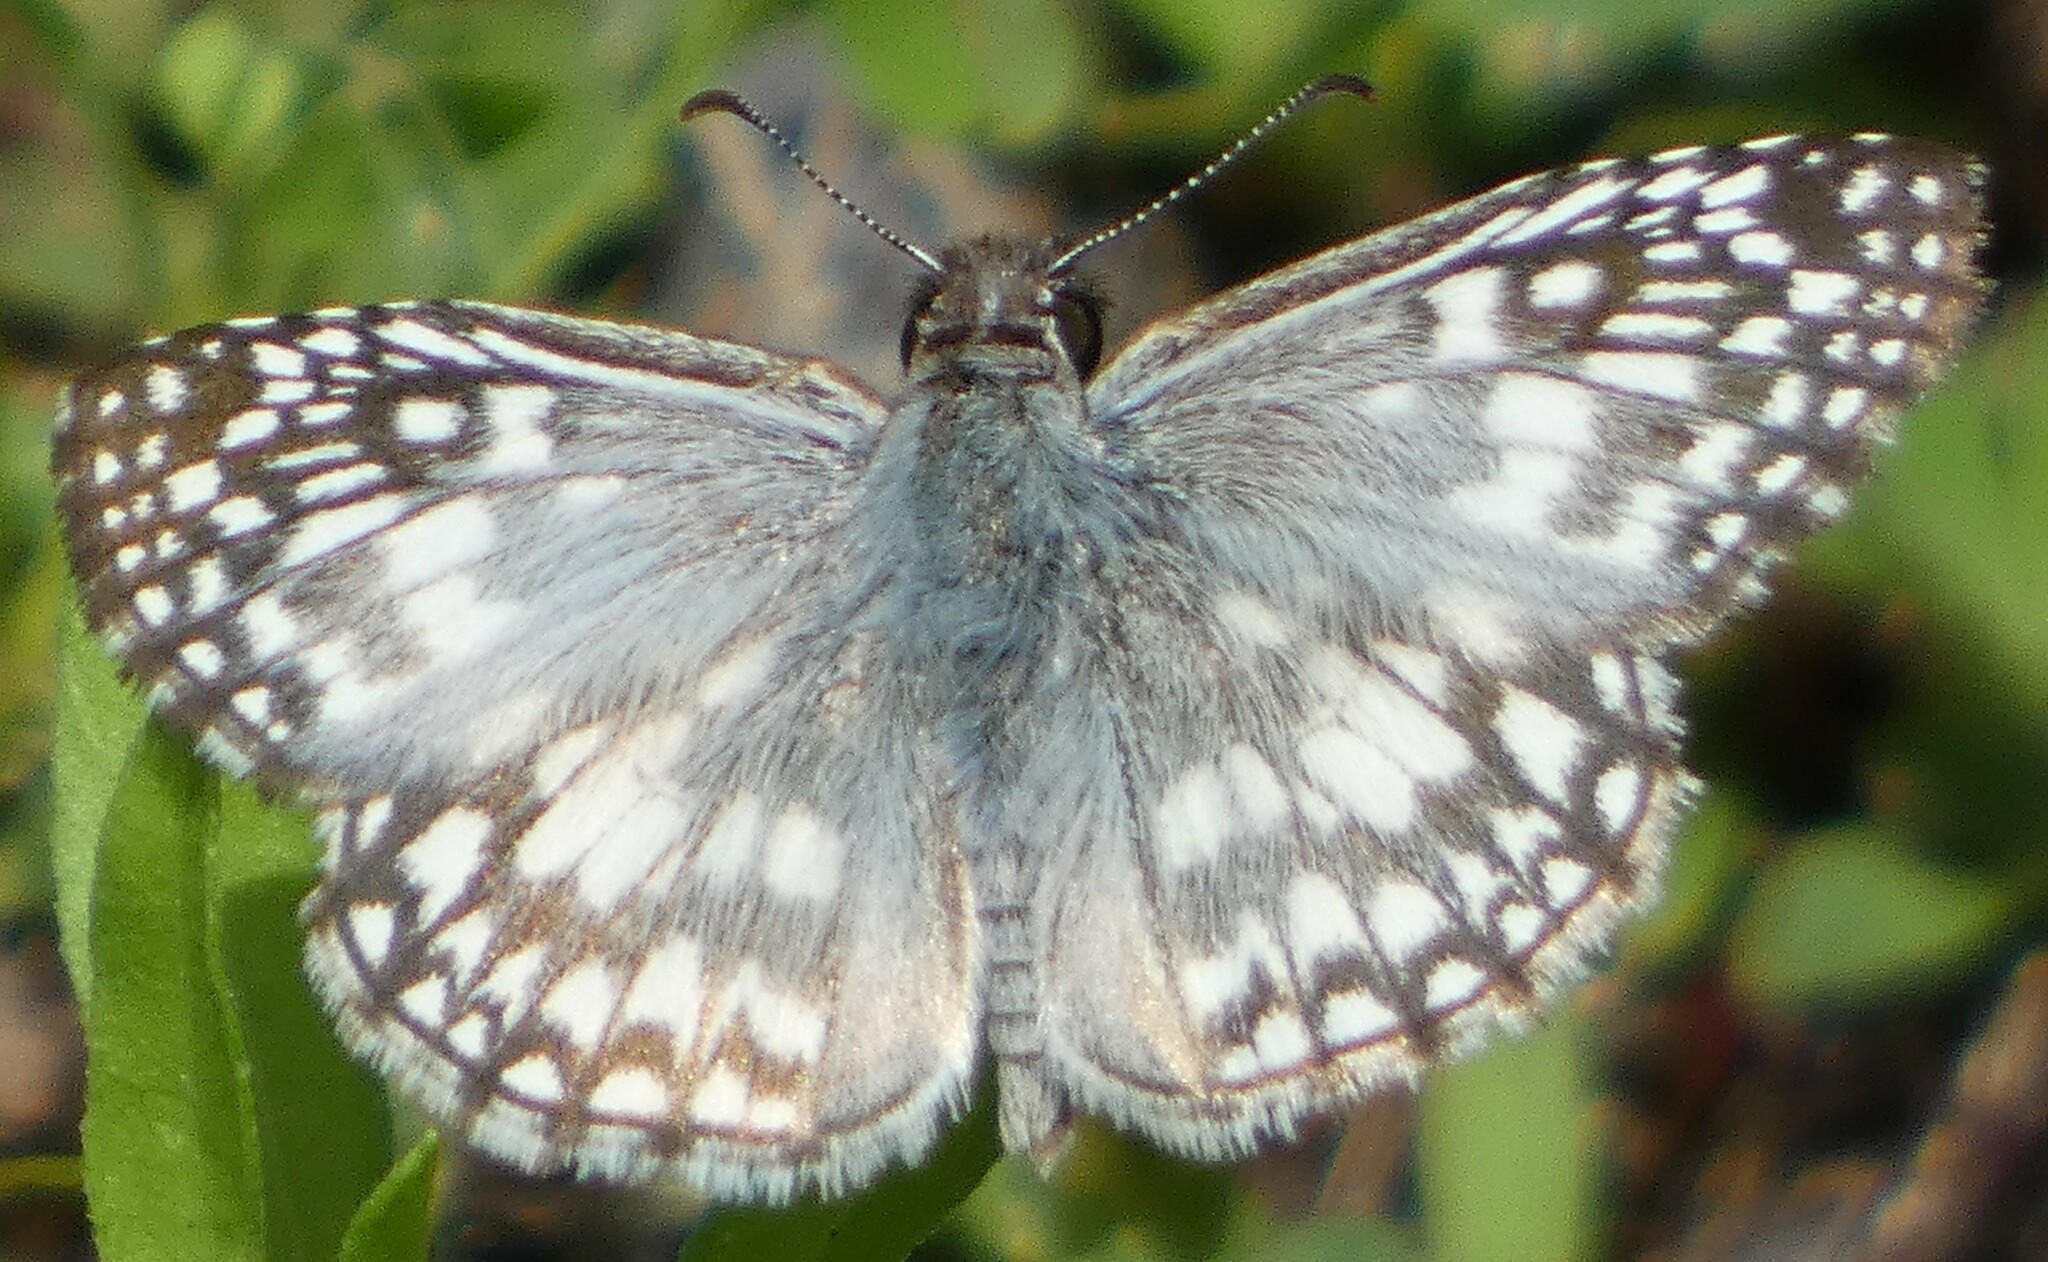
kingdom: Animalia
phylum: Arthropoda
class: Insecta
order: Lepidoptera
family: Hesperiidae
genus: Pyrgus
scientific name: Pyrgus oileus
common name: Tropical checkered-skipper
